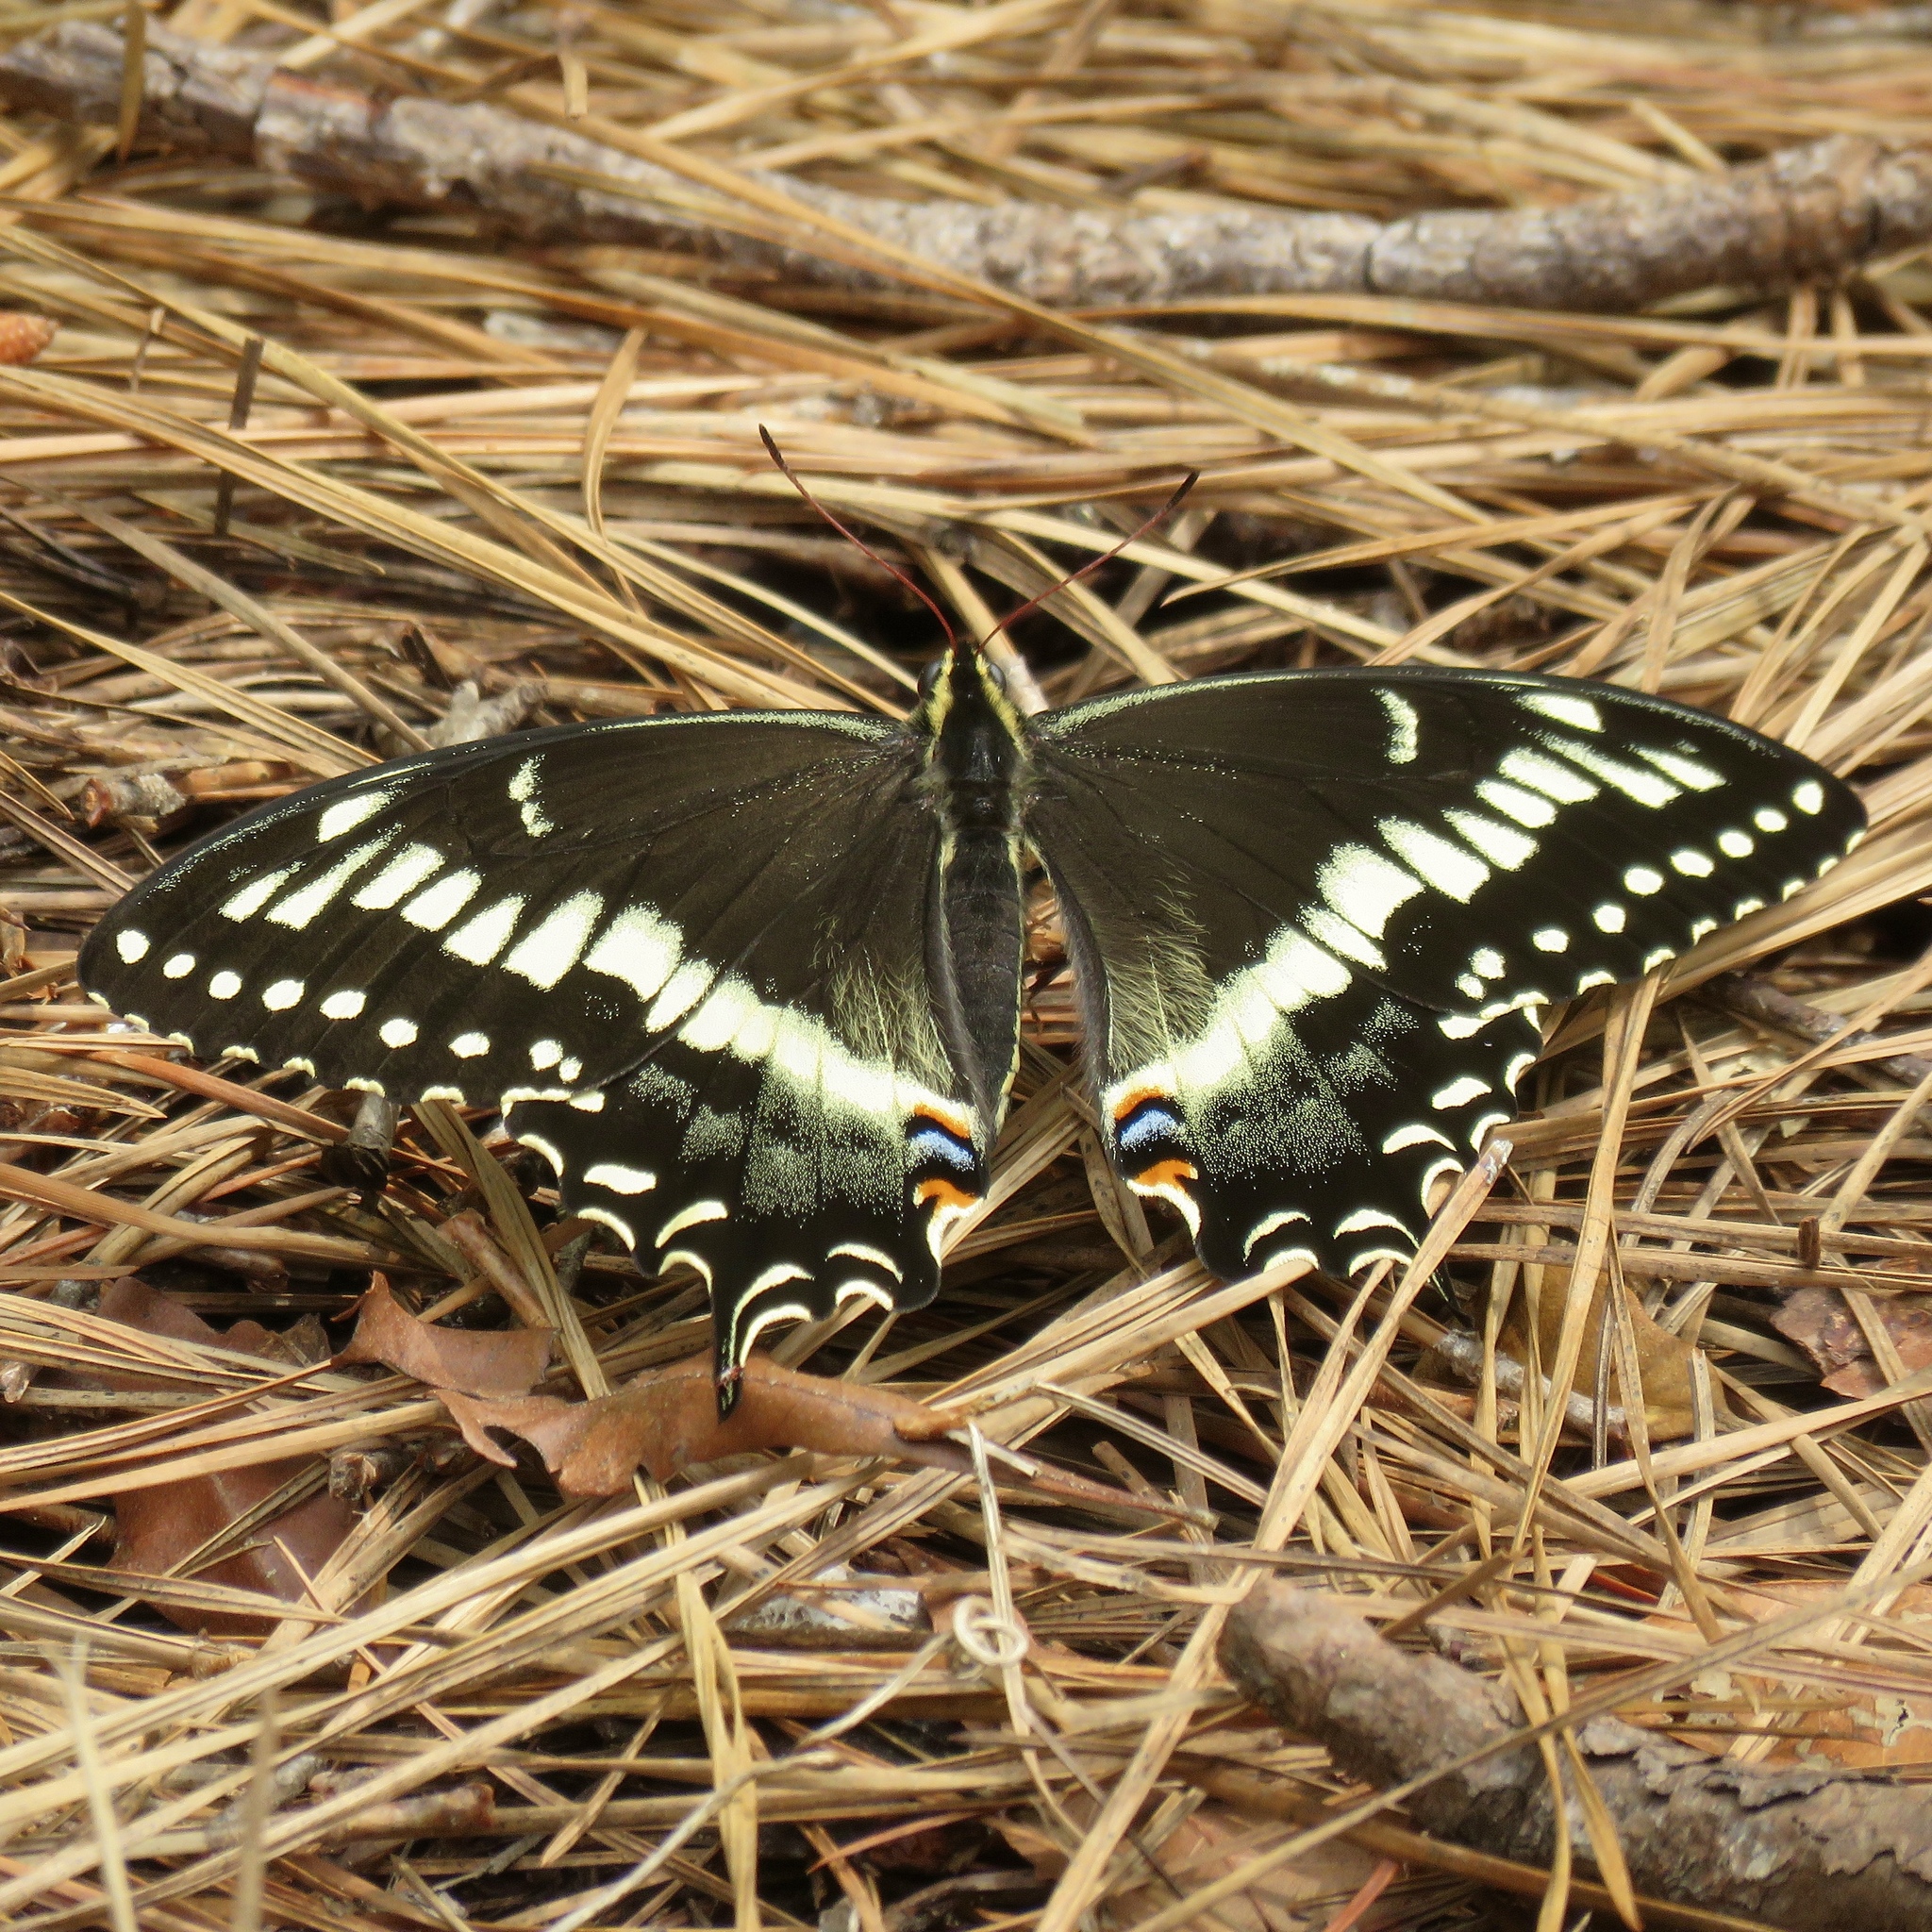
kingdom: Animalia
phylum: Arthropoda
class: Insecta
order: Lepidoptera
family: Papilionidae
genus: Papilio
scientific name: Papilio palamedes
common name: Palamedes swallowtail
